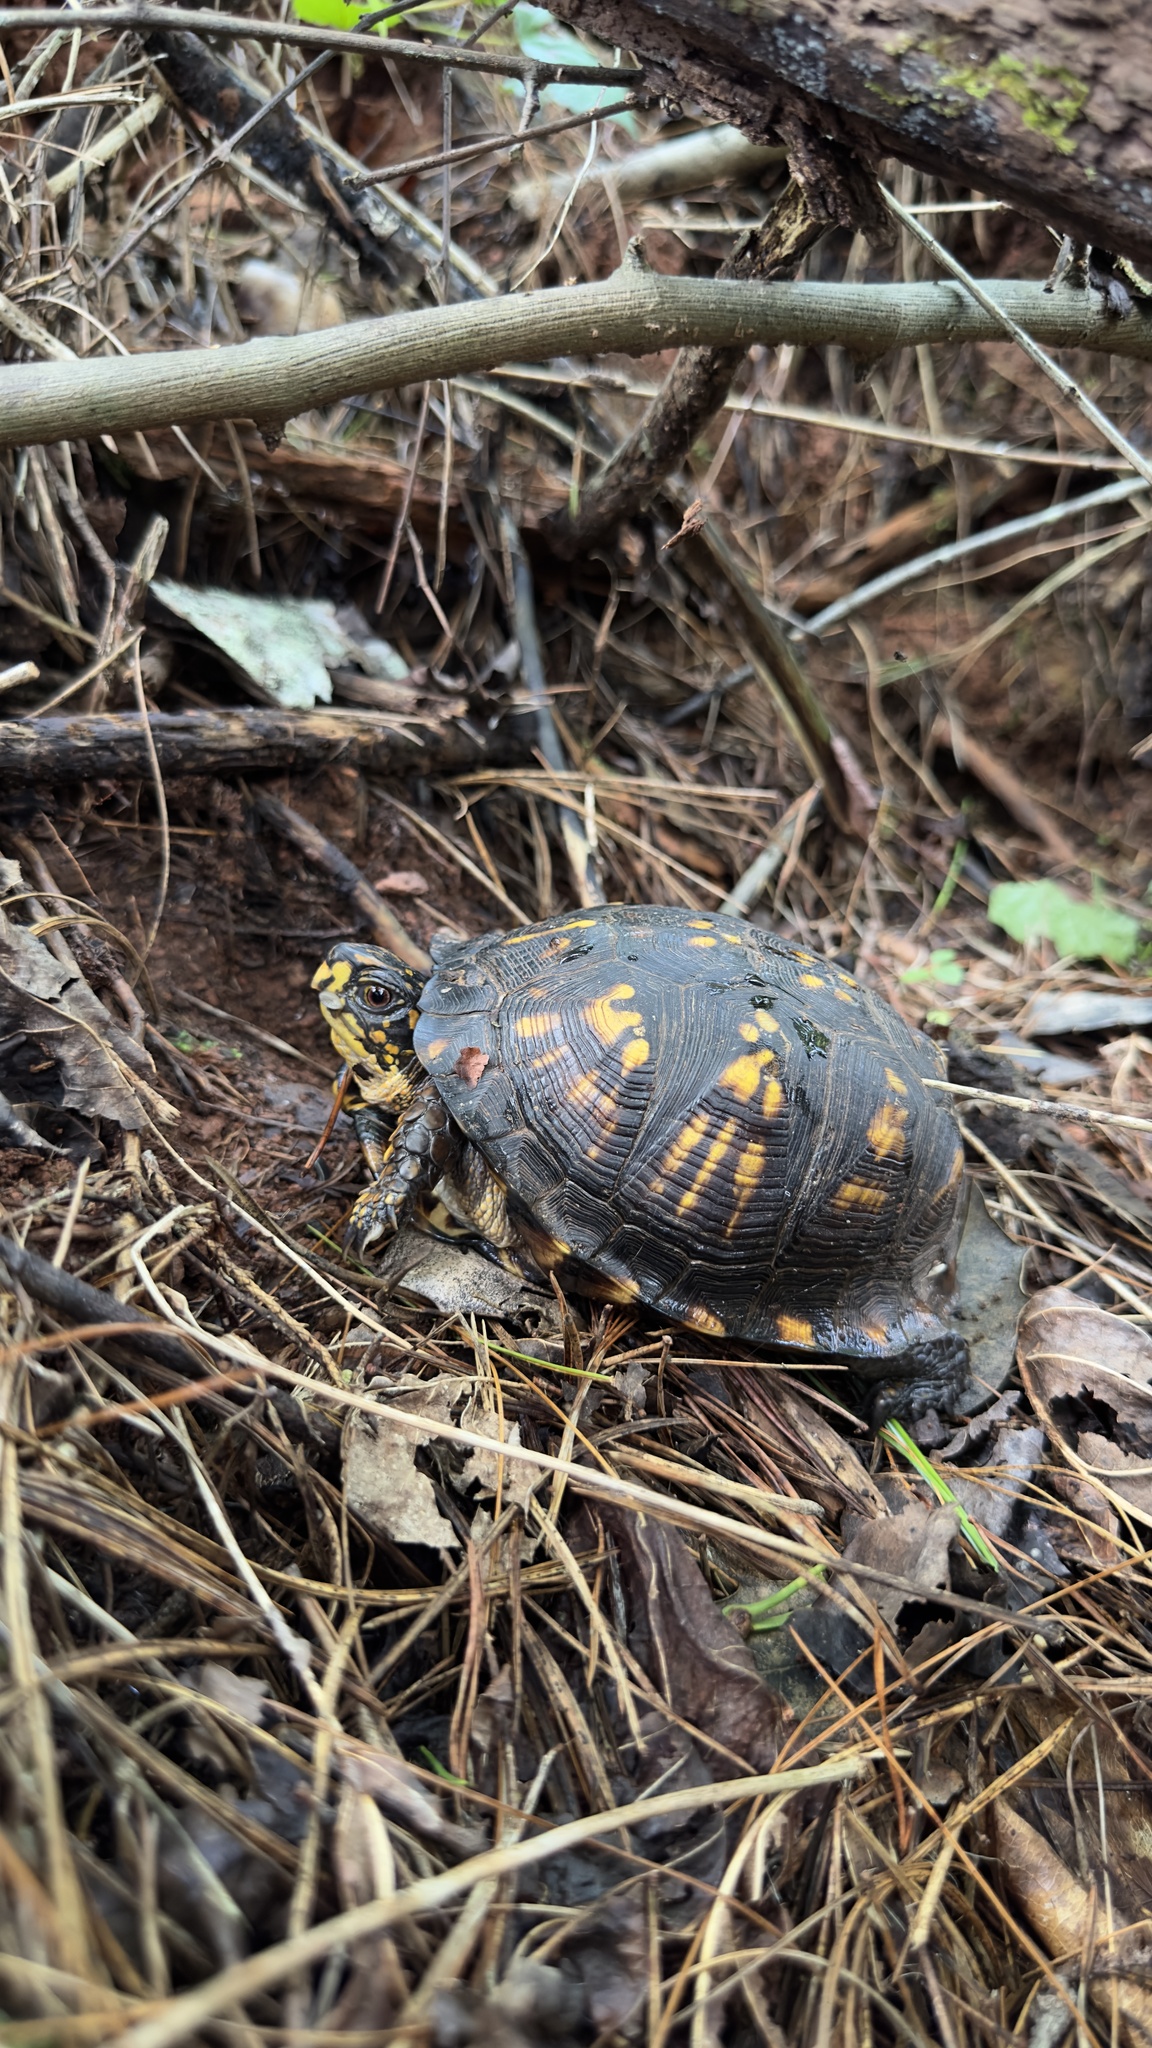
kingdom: Animalia
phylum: Chordata
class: Testudines
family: Emydidae
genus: Terrapene
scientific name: Terrapene carolina
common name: Common box turtle
